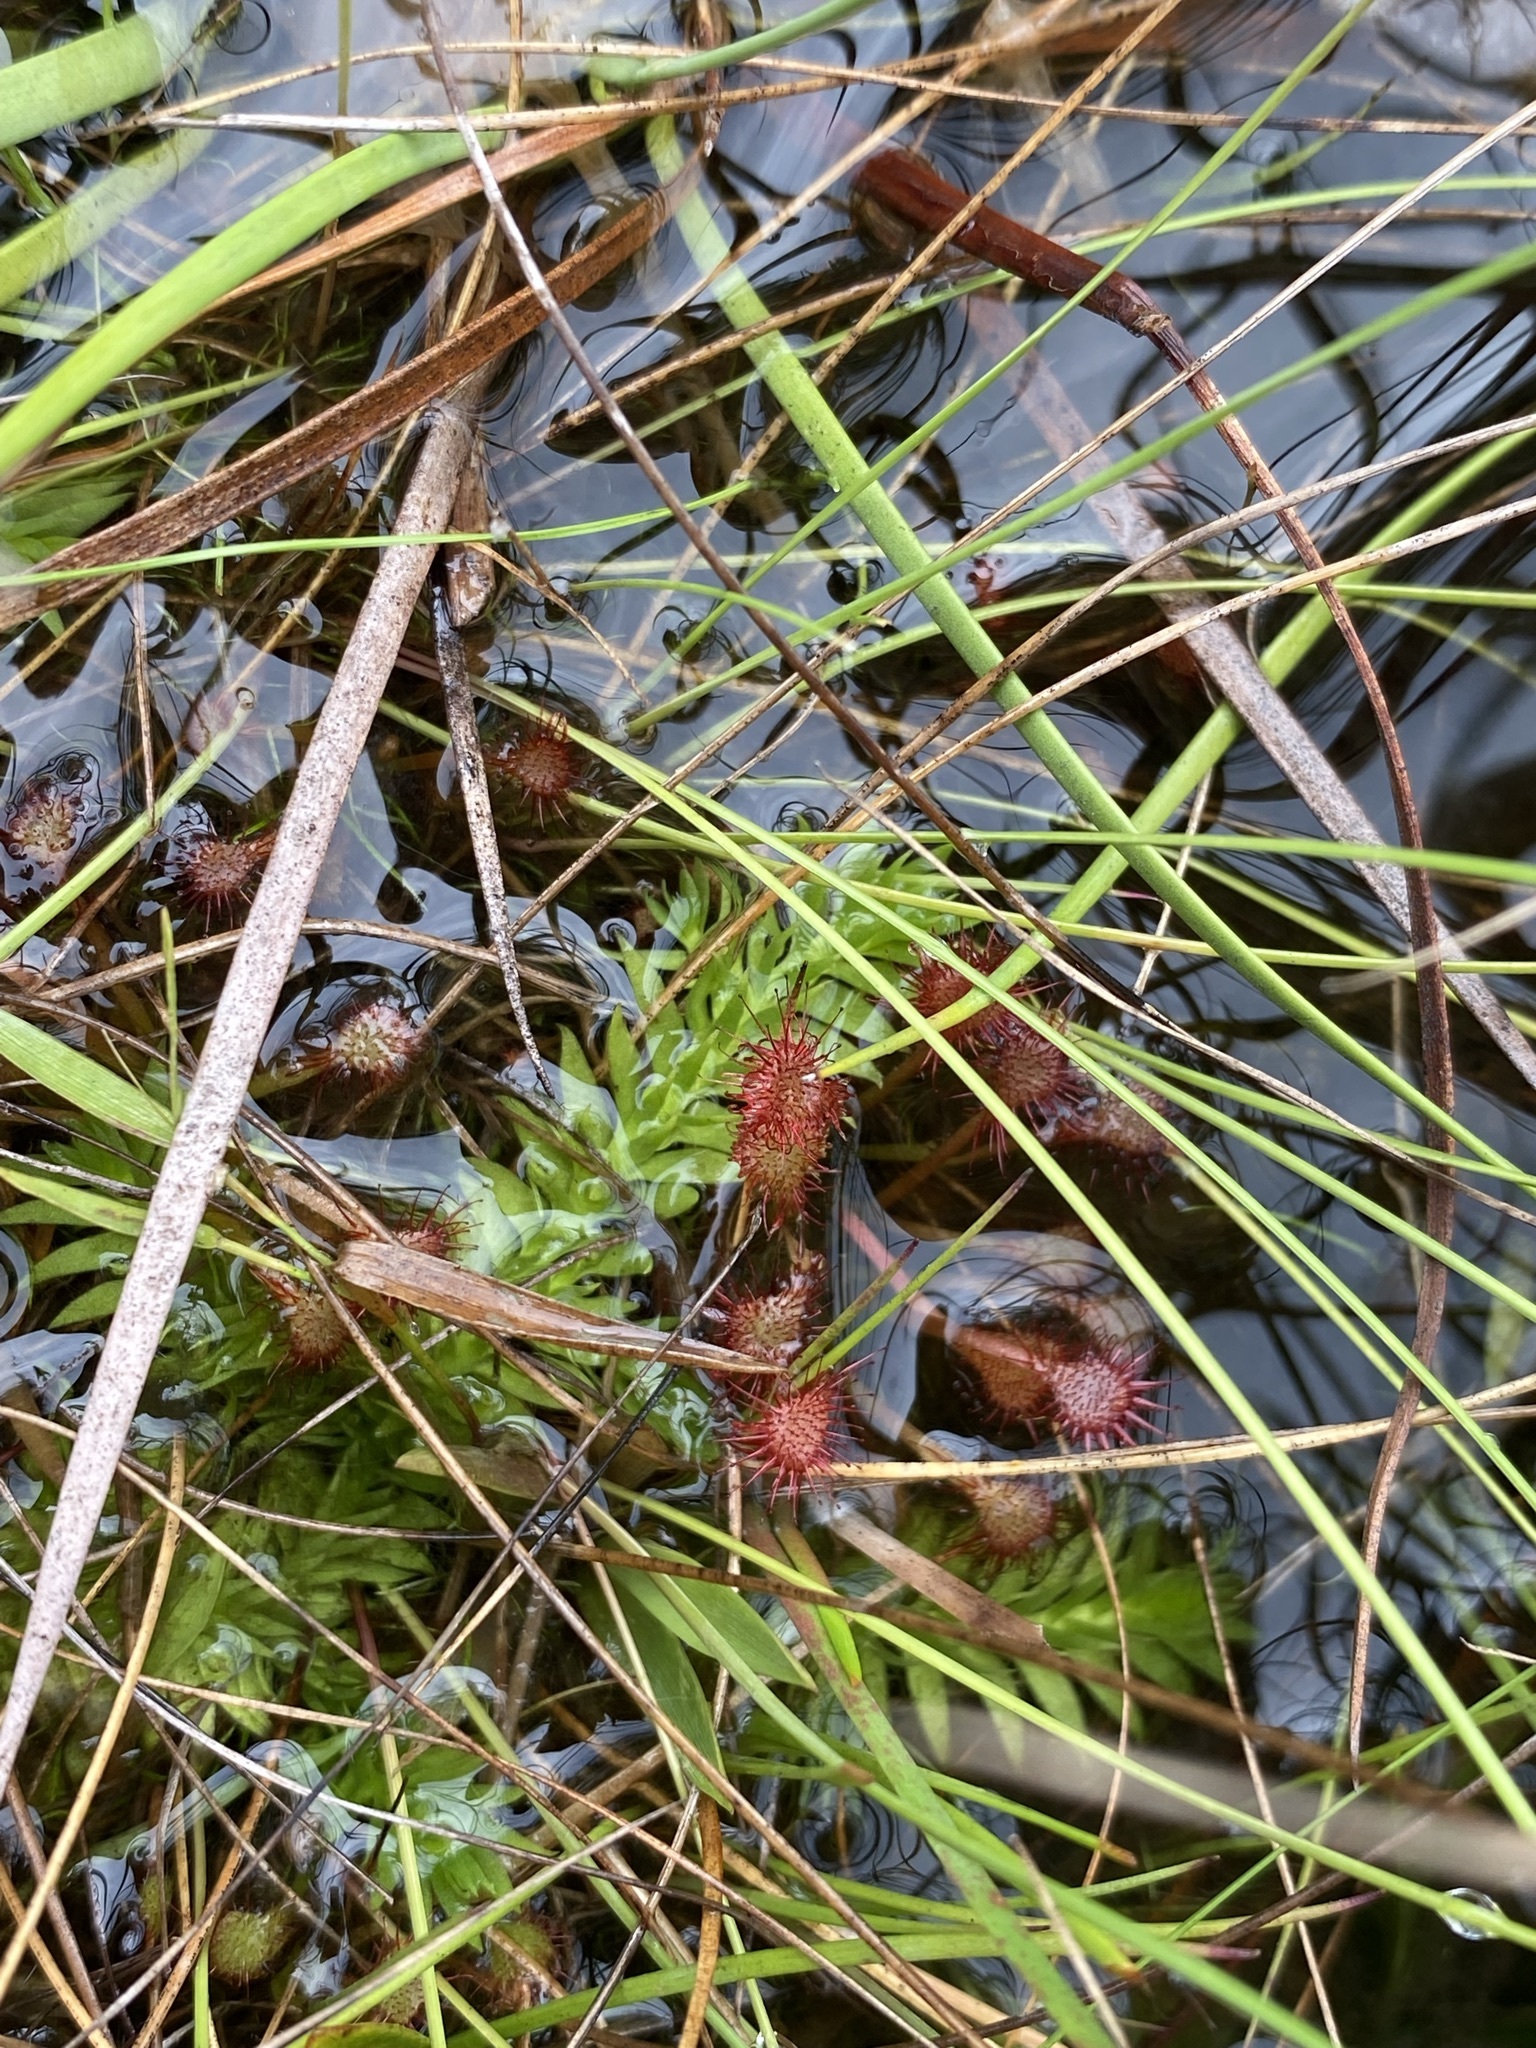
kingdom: Plantae
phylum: Tracheophyta
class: Lycopodiopsida
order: Lycopodiales
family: Lycopodiaceae
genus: Pseudolycopodiella
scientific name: Pseudolycopodiella caroliniana
